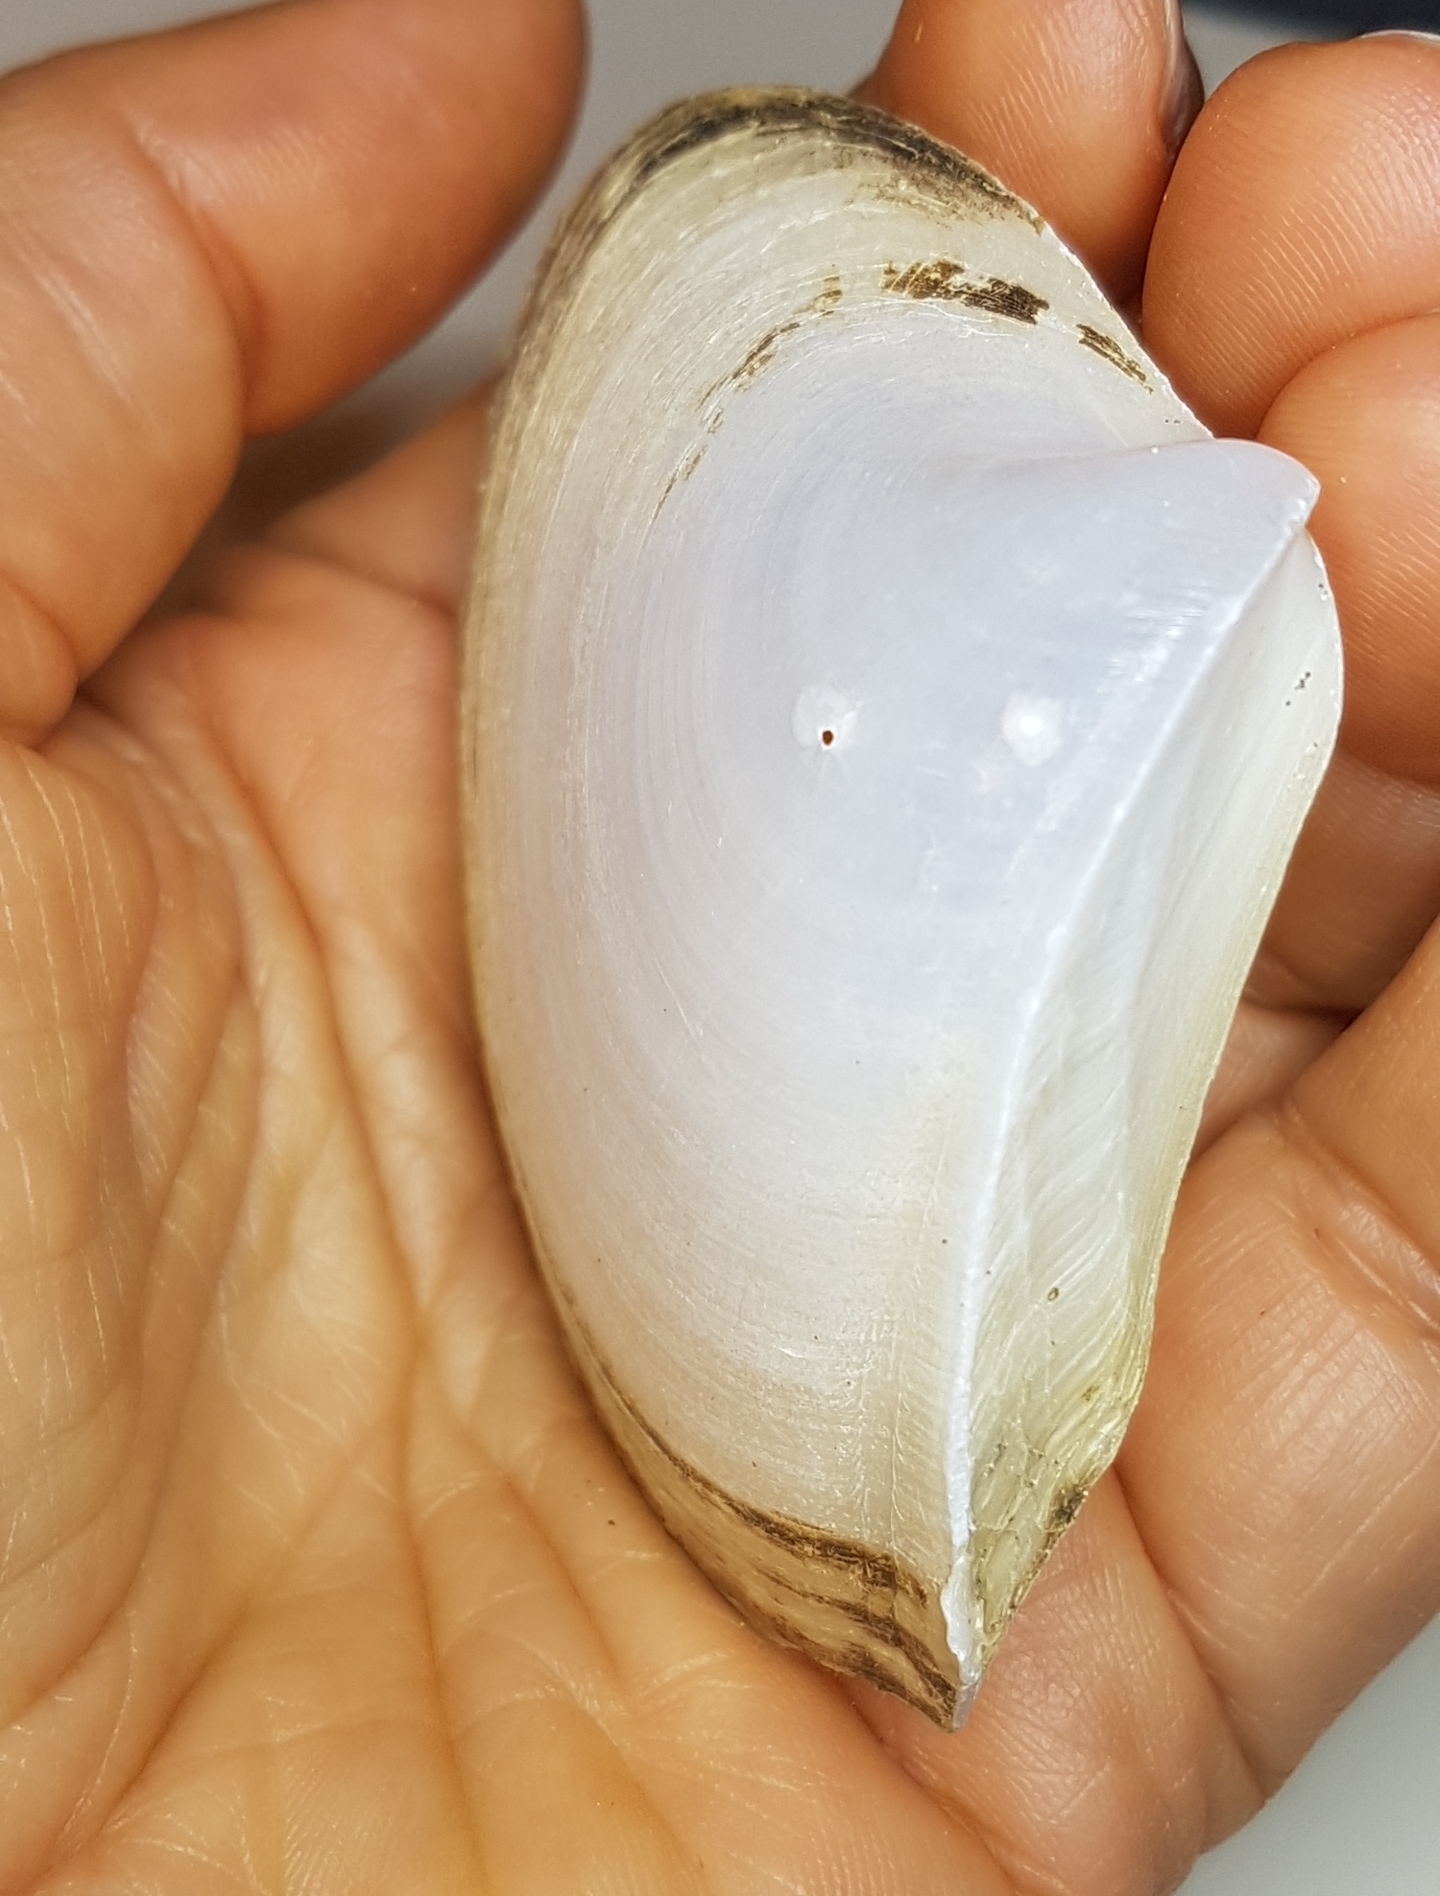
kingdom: Animalia
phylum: Mollusca
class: Bivalvia
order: Venerida
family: Mactridae
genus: Mactrellona
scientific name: Mactrellona clisia
